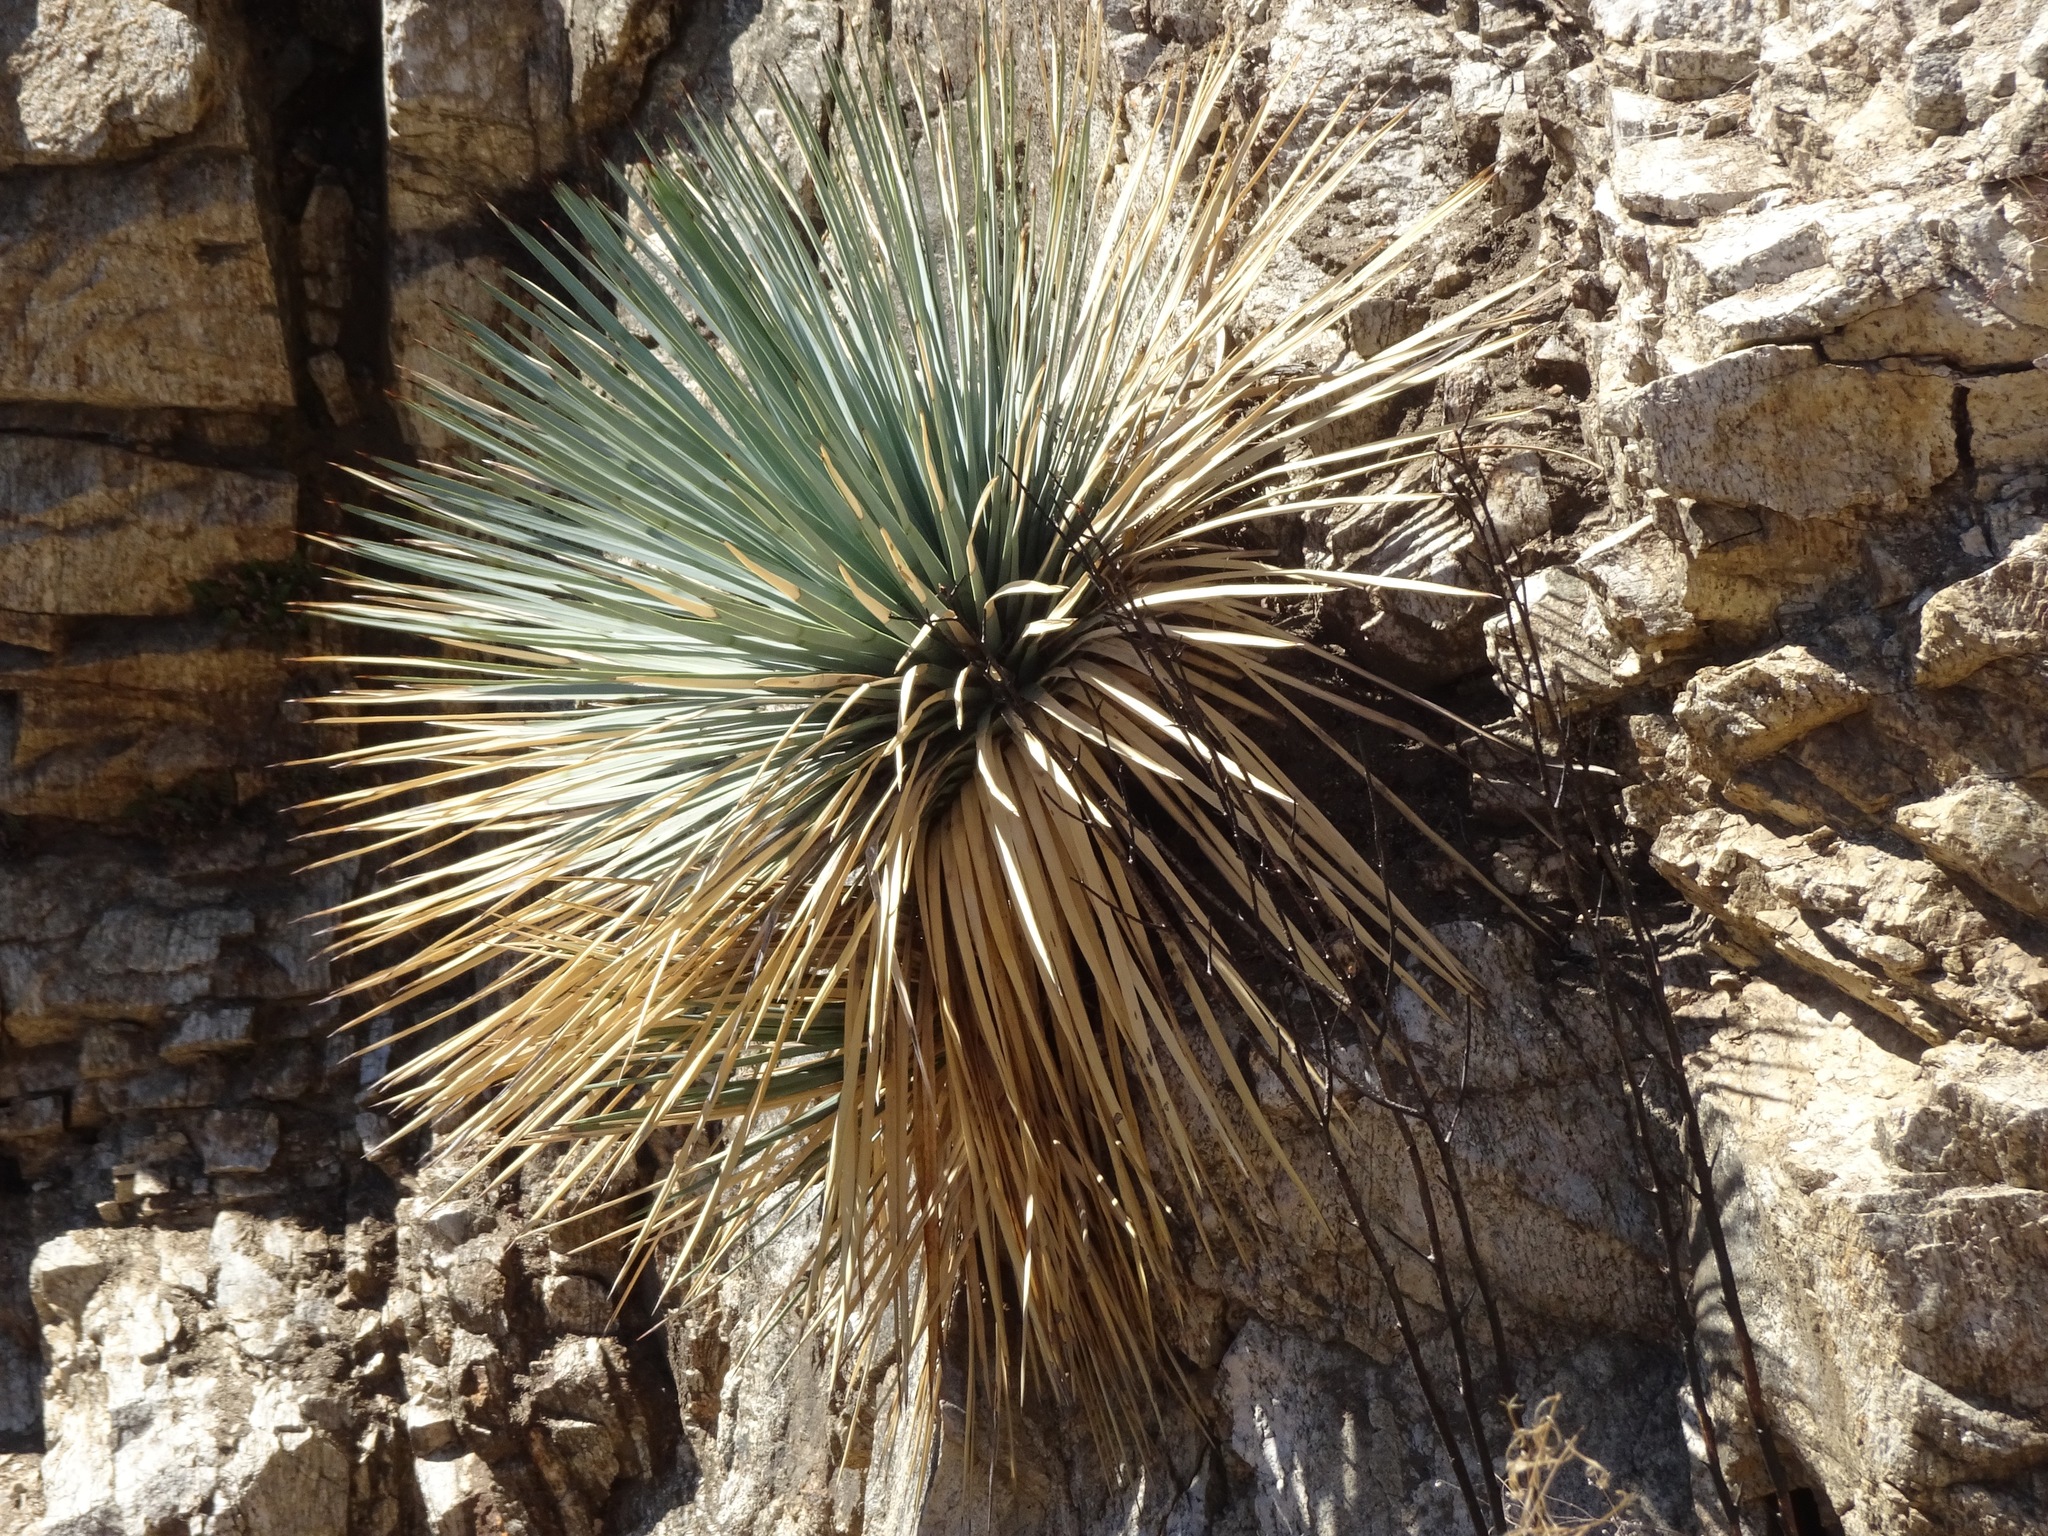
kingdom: Plantae
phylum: Tracheophyta
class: Liliopsida
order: Asparagales
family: Asparagaceae
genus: Hesperoyucca
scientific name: Hesperoyucca whipplei
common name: Our lord's-candle
